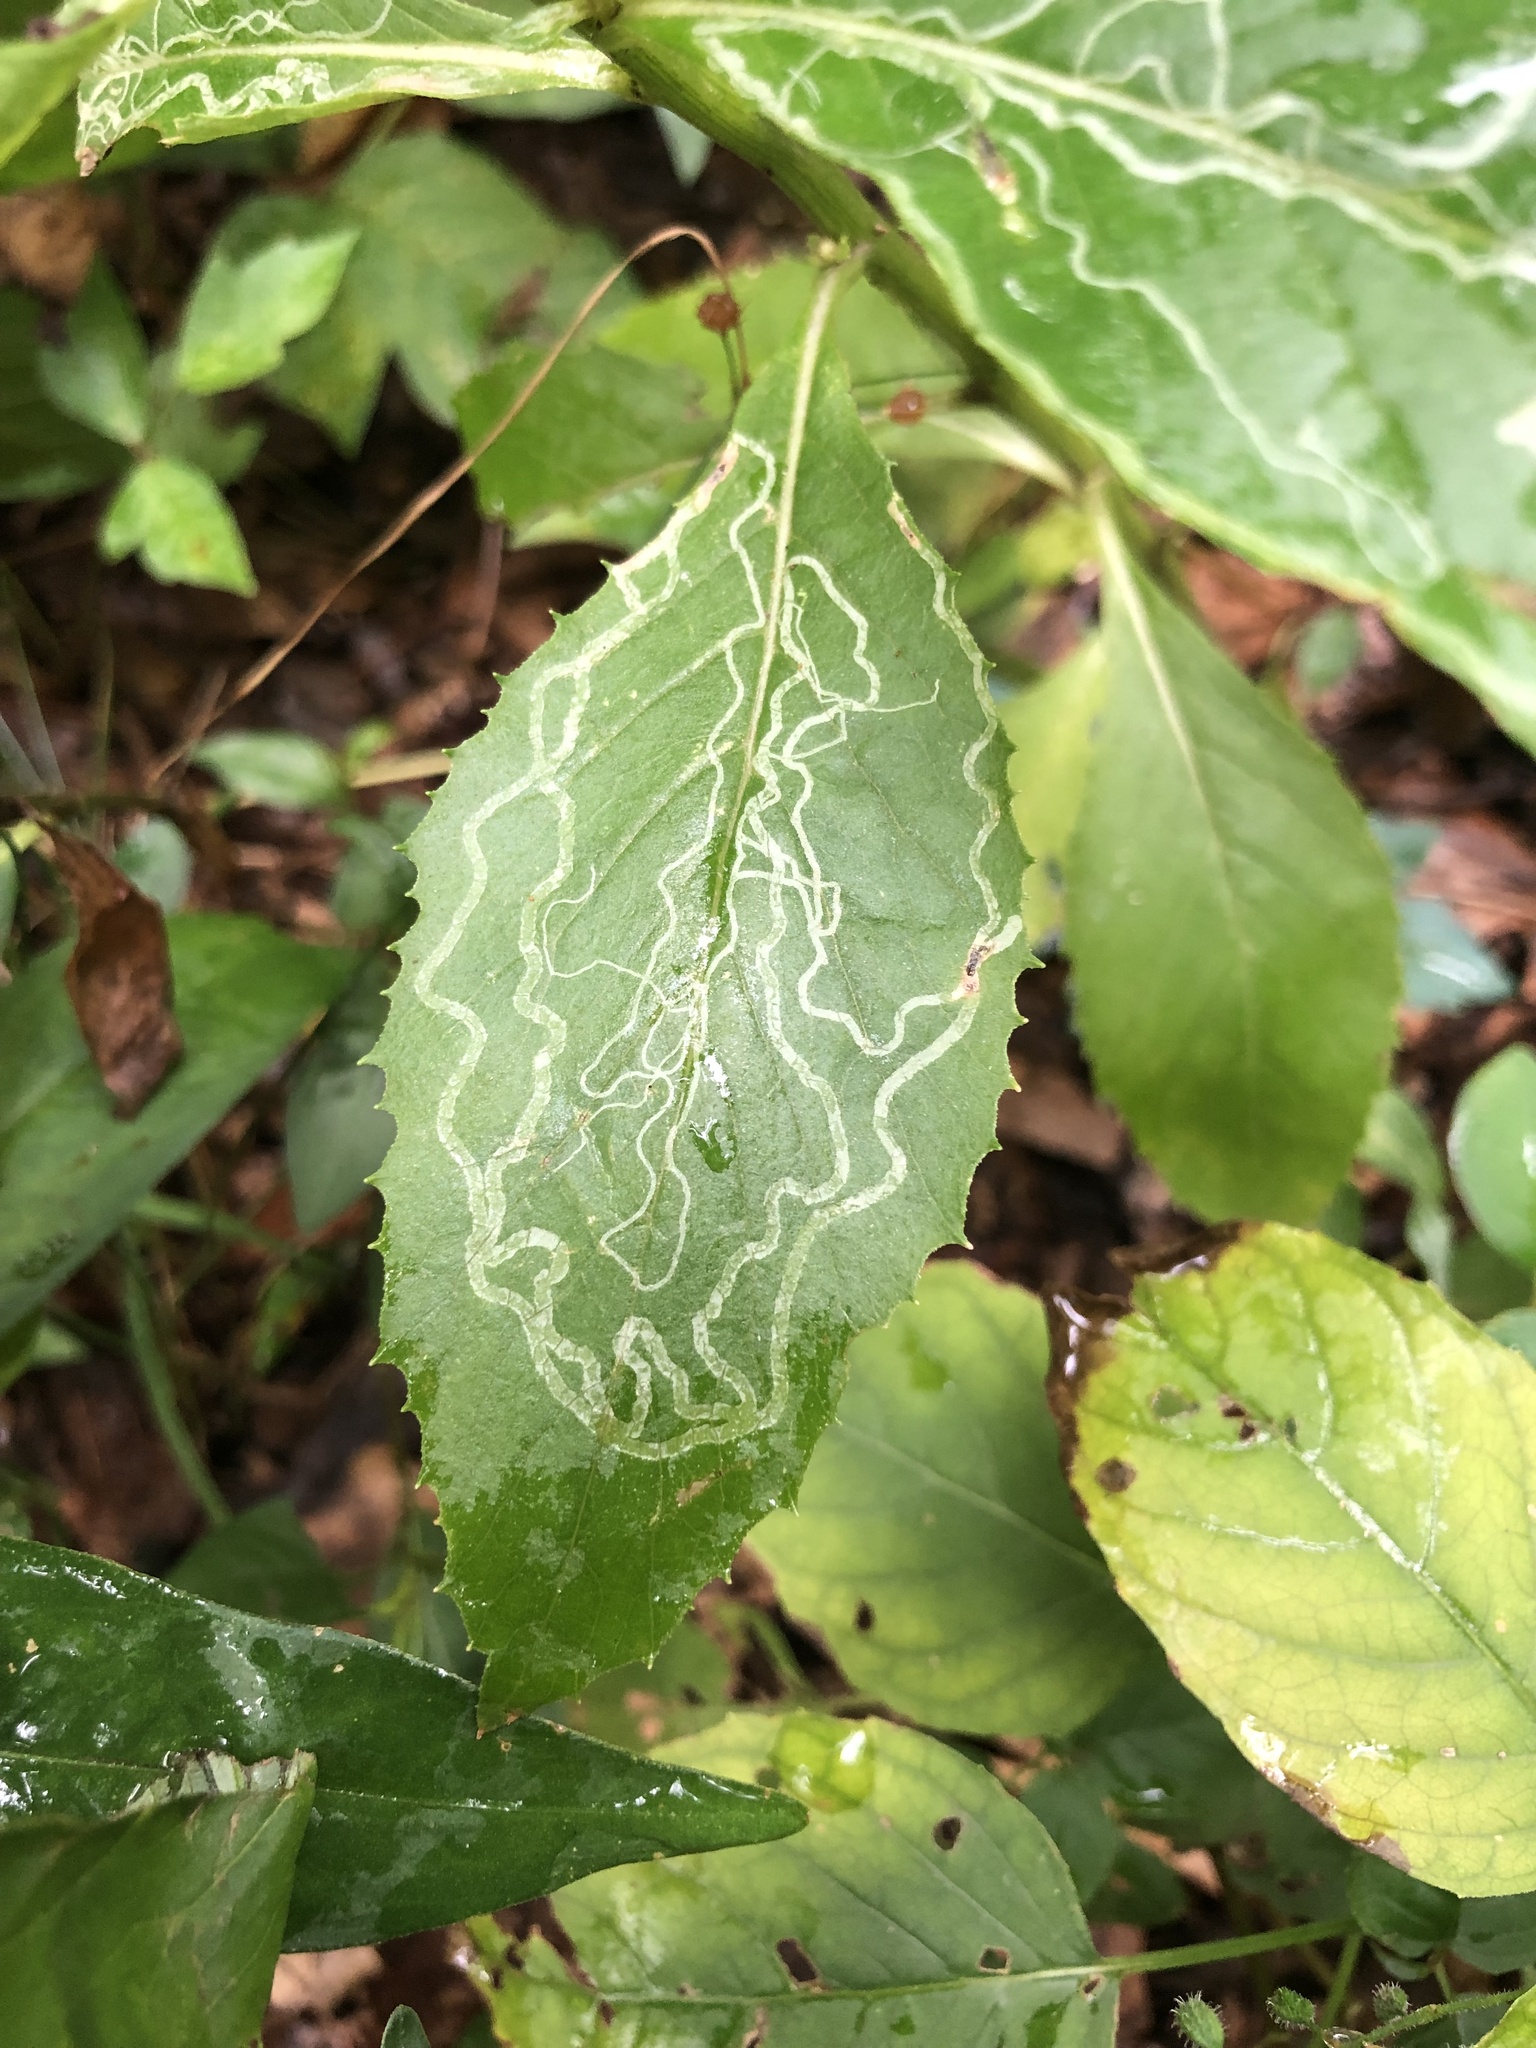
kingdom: Animalia
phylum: Arthropoda
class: Insecta
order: Lepidoptera
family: Gracillariidae
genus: Phyllocnistis
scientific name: Phyllocnistis insignis
